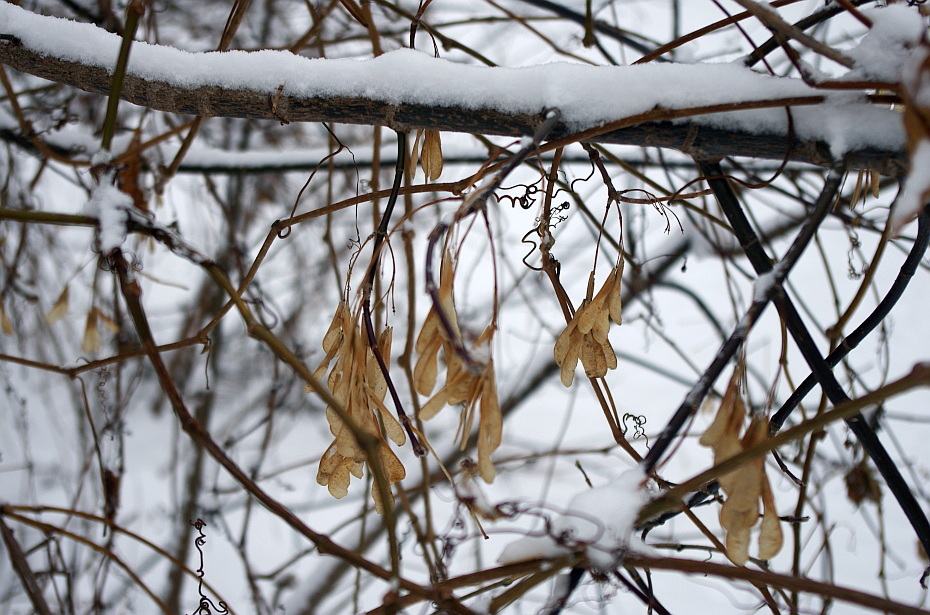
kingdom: Plantae
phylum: Tracheophyta
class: Magnoliopsida
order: Sapindales
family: Sapindaceae
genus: Acer
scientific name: Acer negundo
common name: Ashleaf maple
